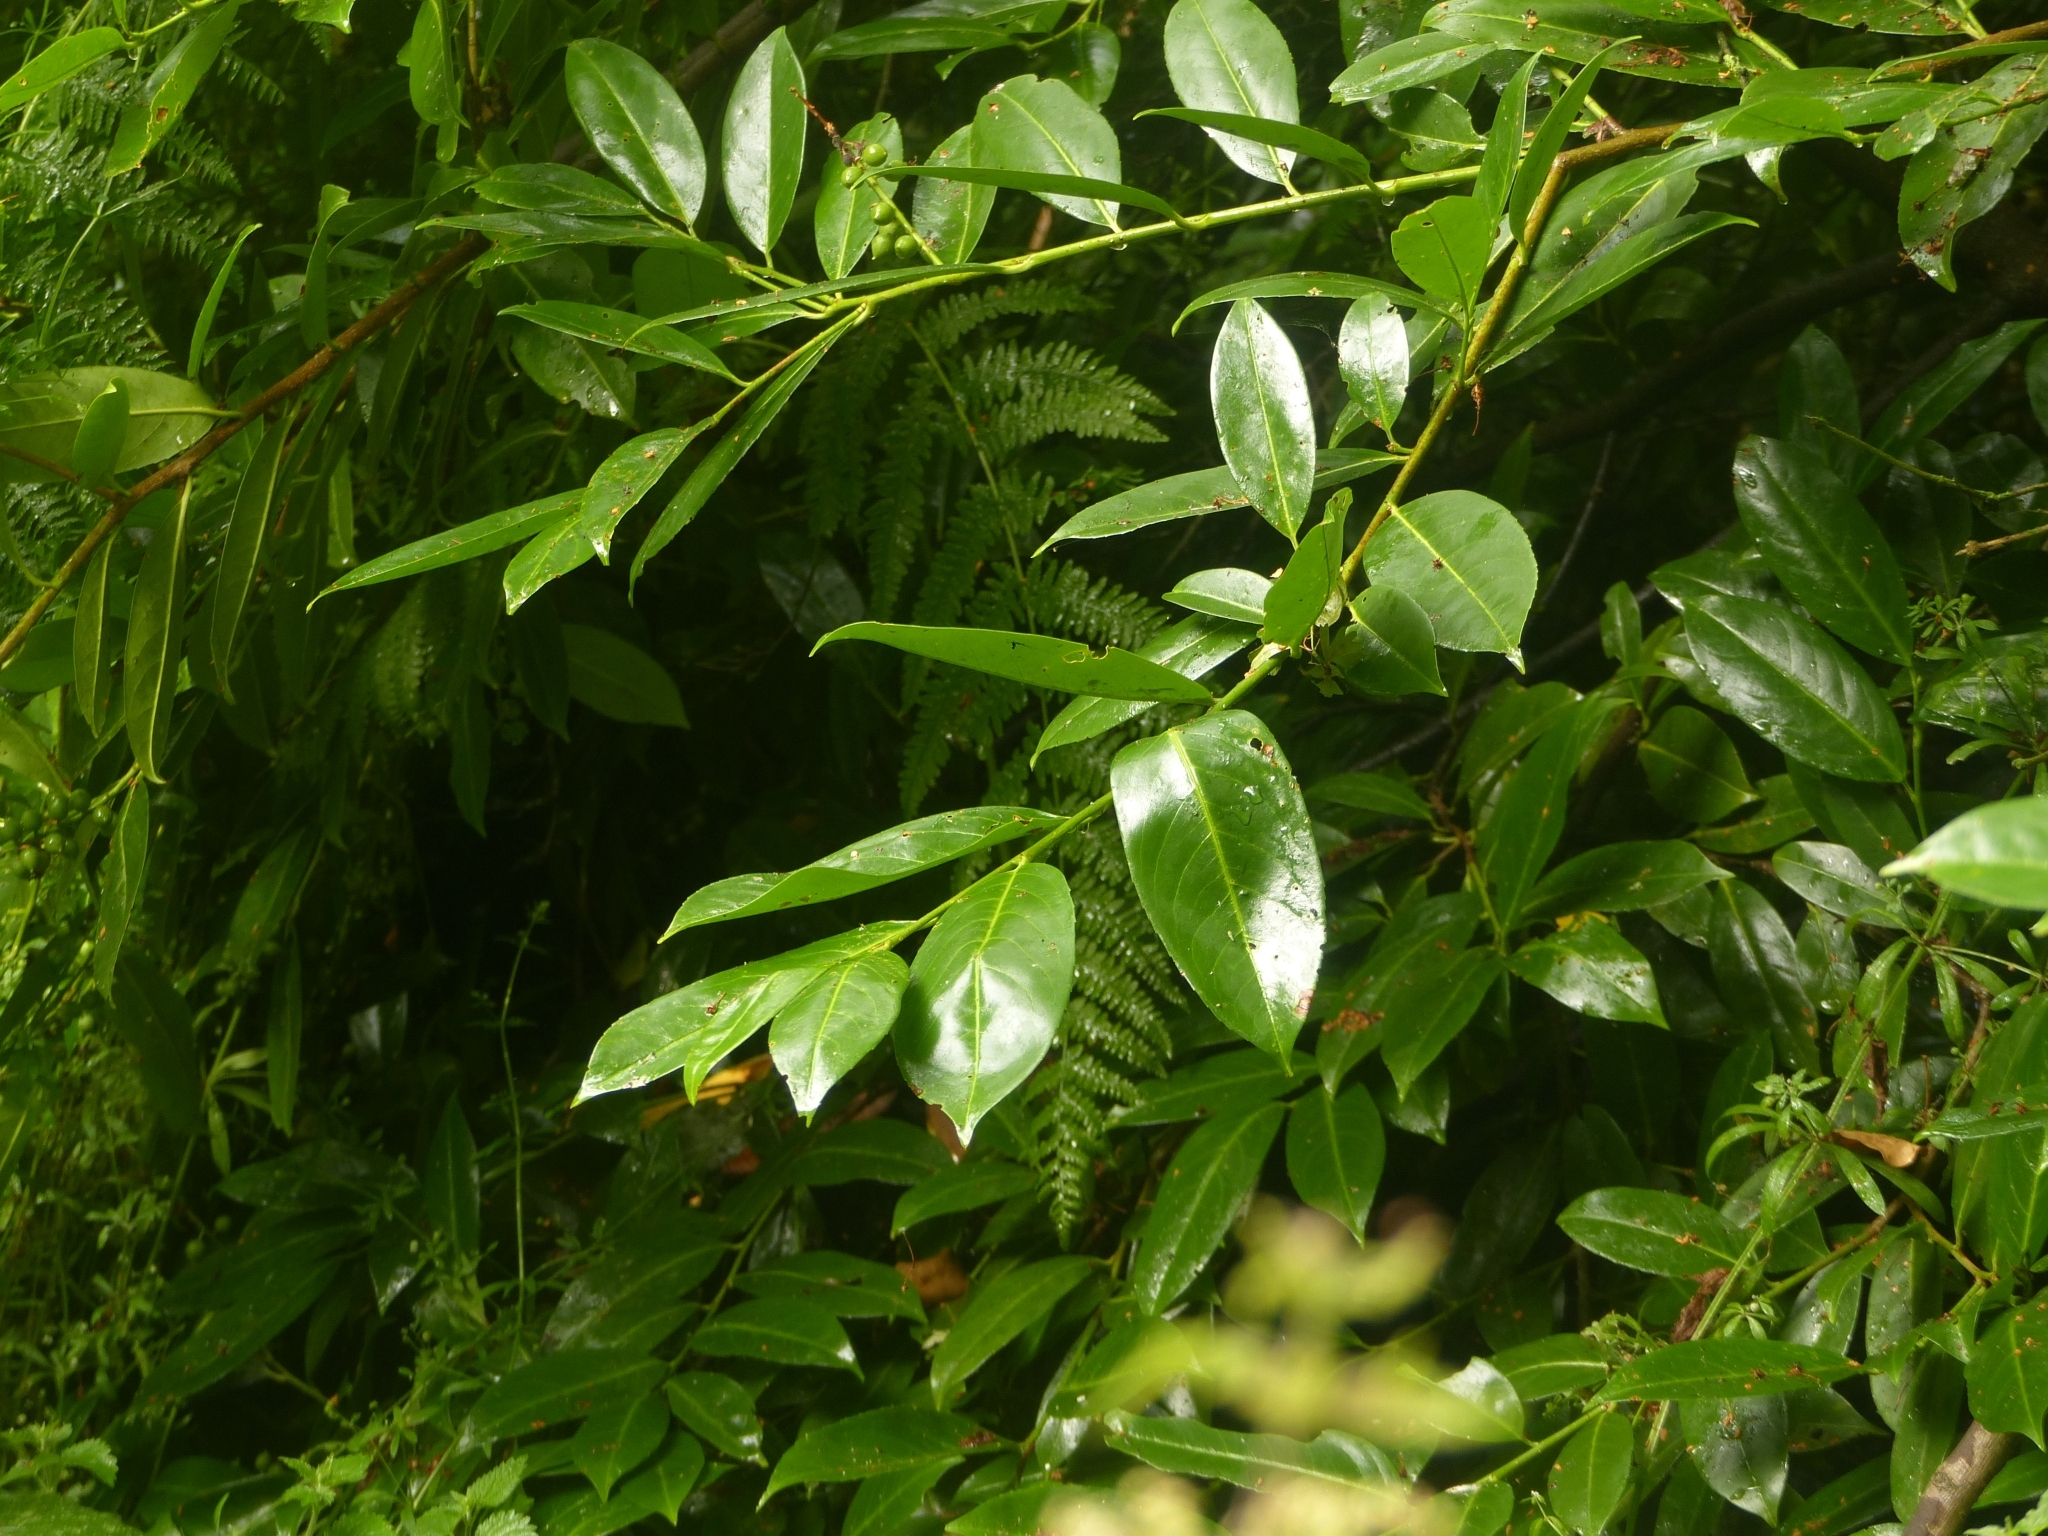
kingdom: Plantae
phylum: Tracheophyta
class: Magnoliopsida
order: Rosales
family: Rosaceae
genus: Prunus
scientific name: Prunus laurocerasus
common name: Cherry laurel
